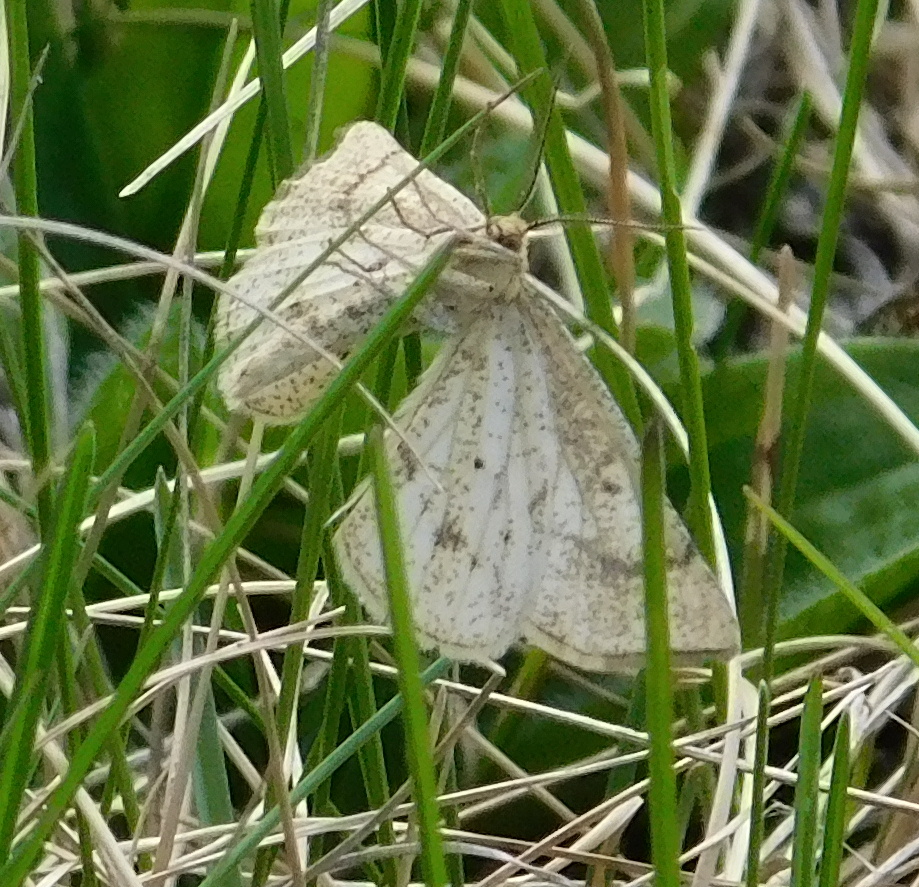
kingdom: Animalia
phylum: Arthropoda
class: Insecta
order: Lepidoptera
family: Geometridae
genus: Hypoxystis
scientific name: Hypoxystis pluviaria
